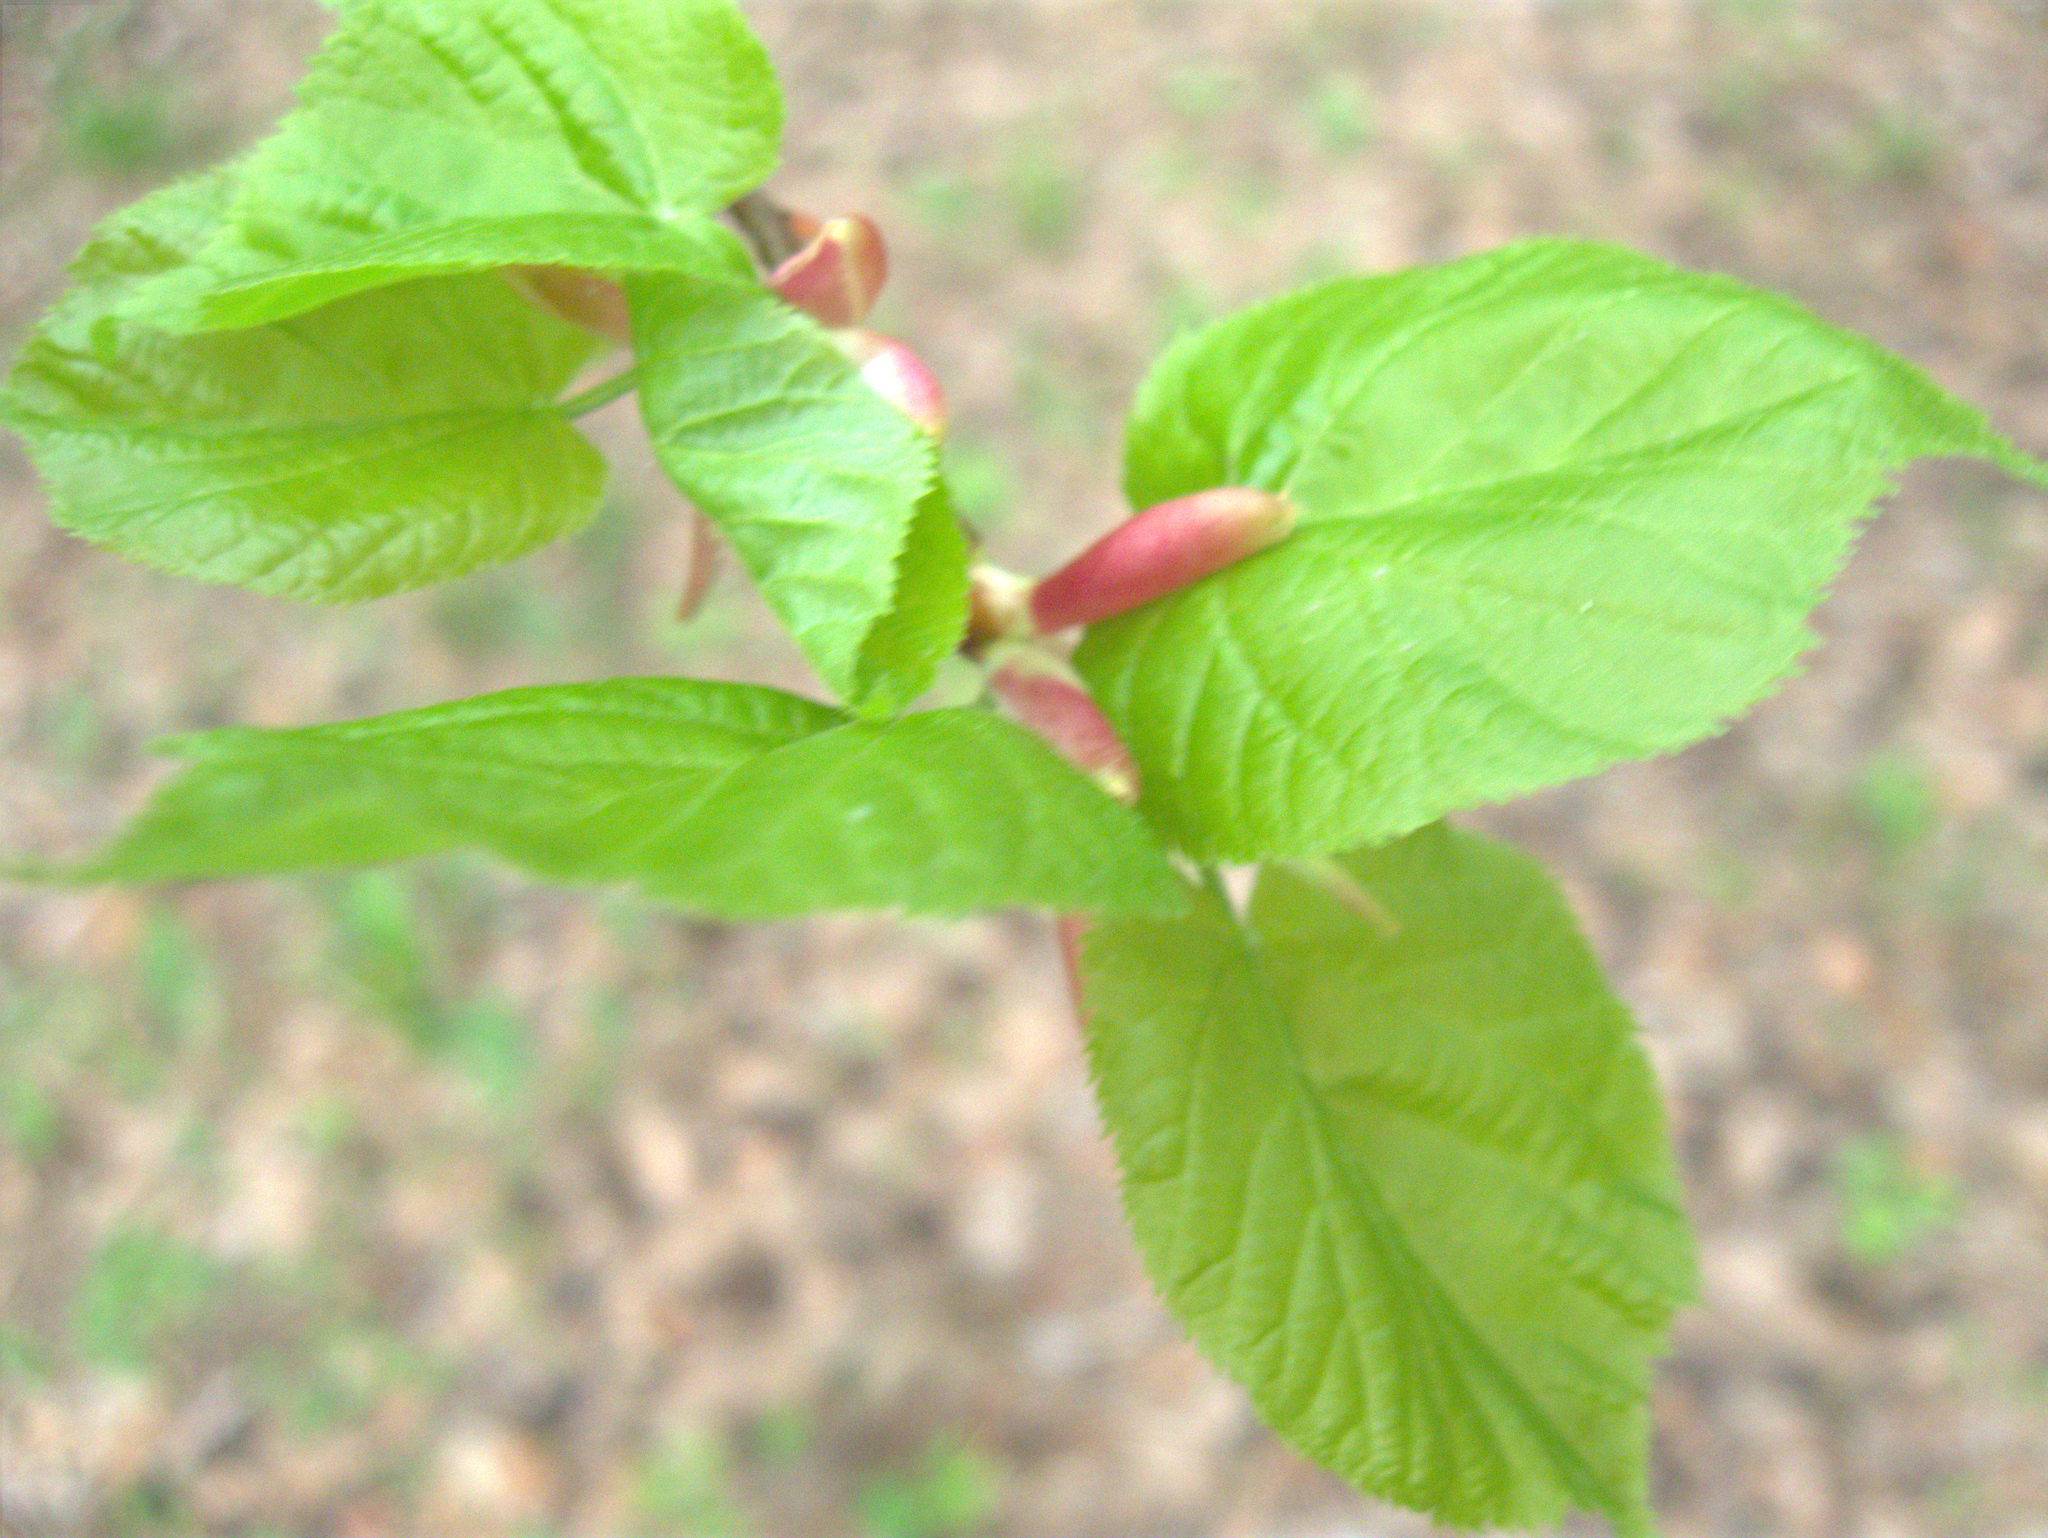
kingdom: Plantae
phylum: Tracheophyta
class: Magnoliopsida
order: Malvales
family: Malvaceae
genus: Tilia
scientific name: Tilia cordata
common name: Small-leaved lime
